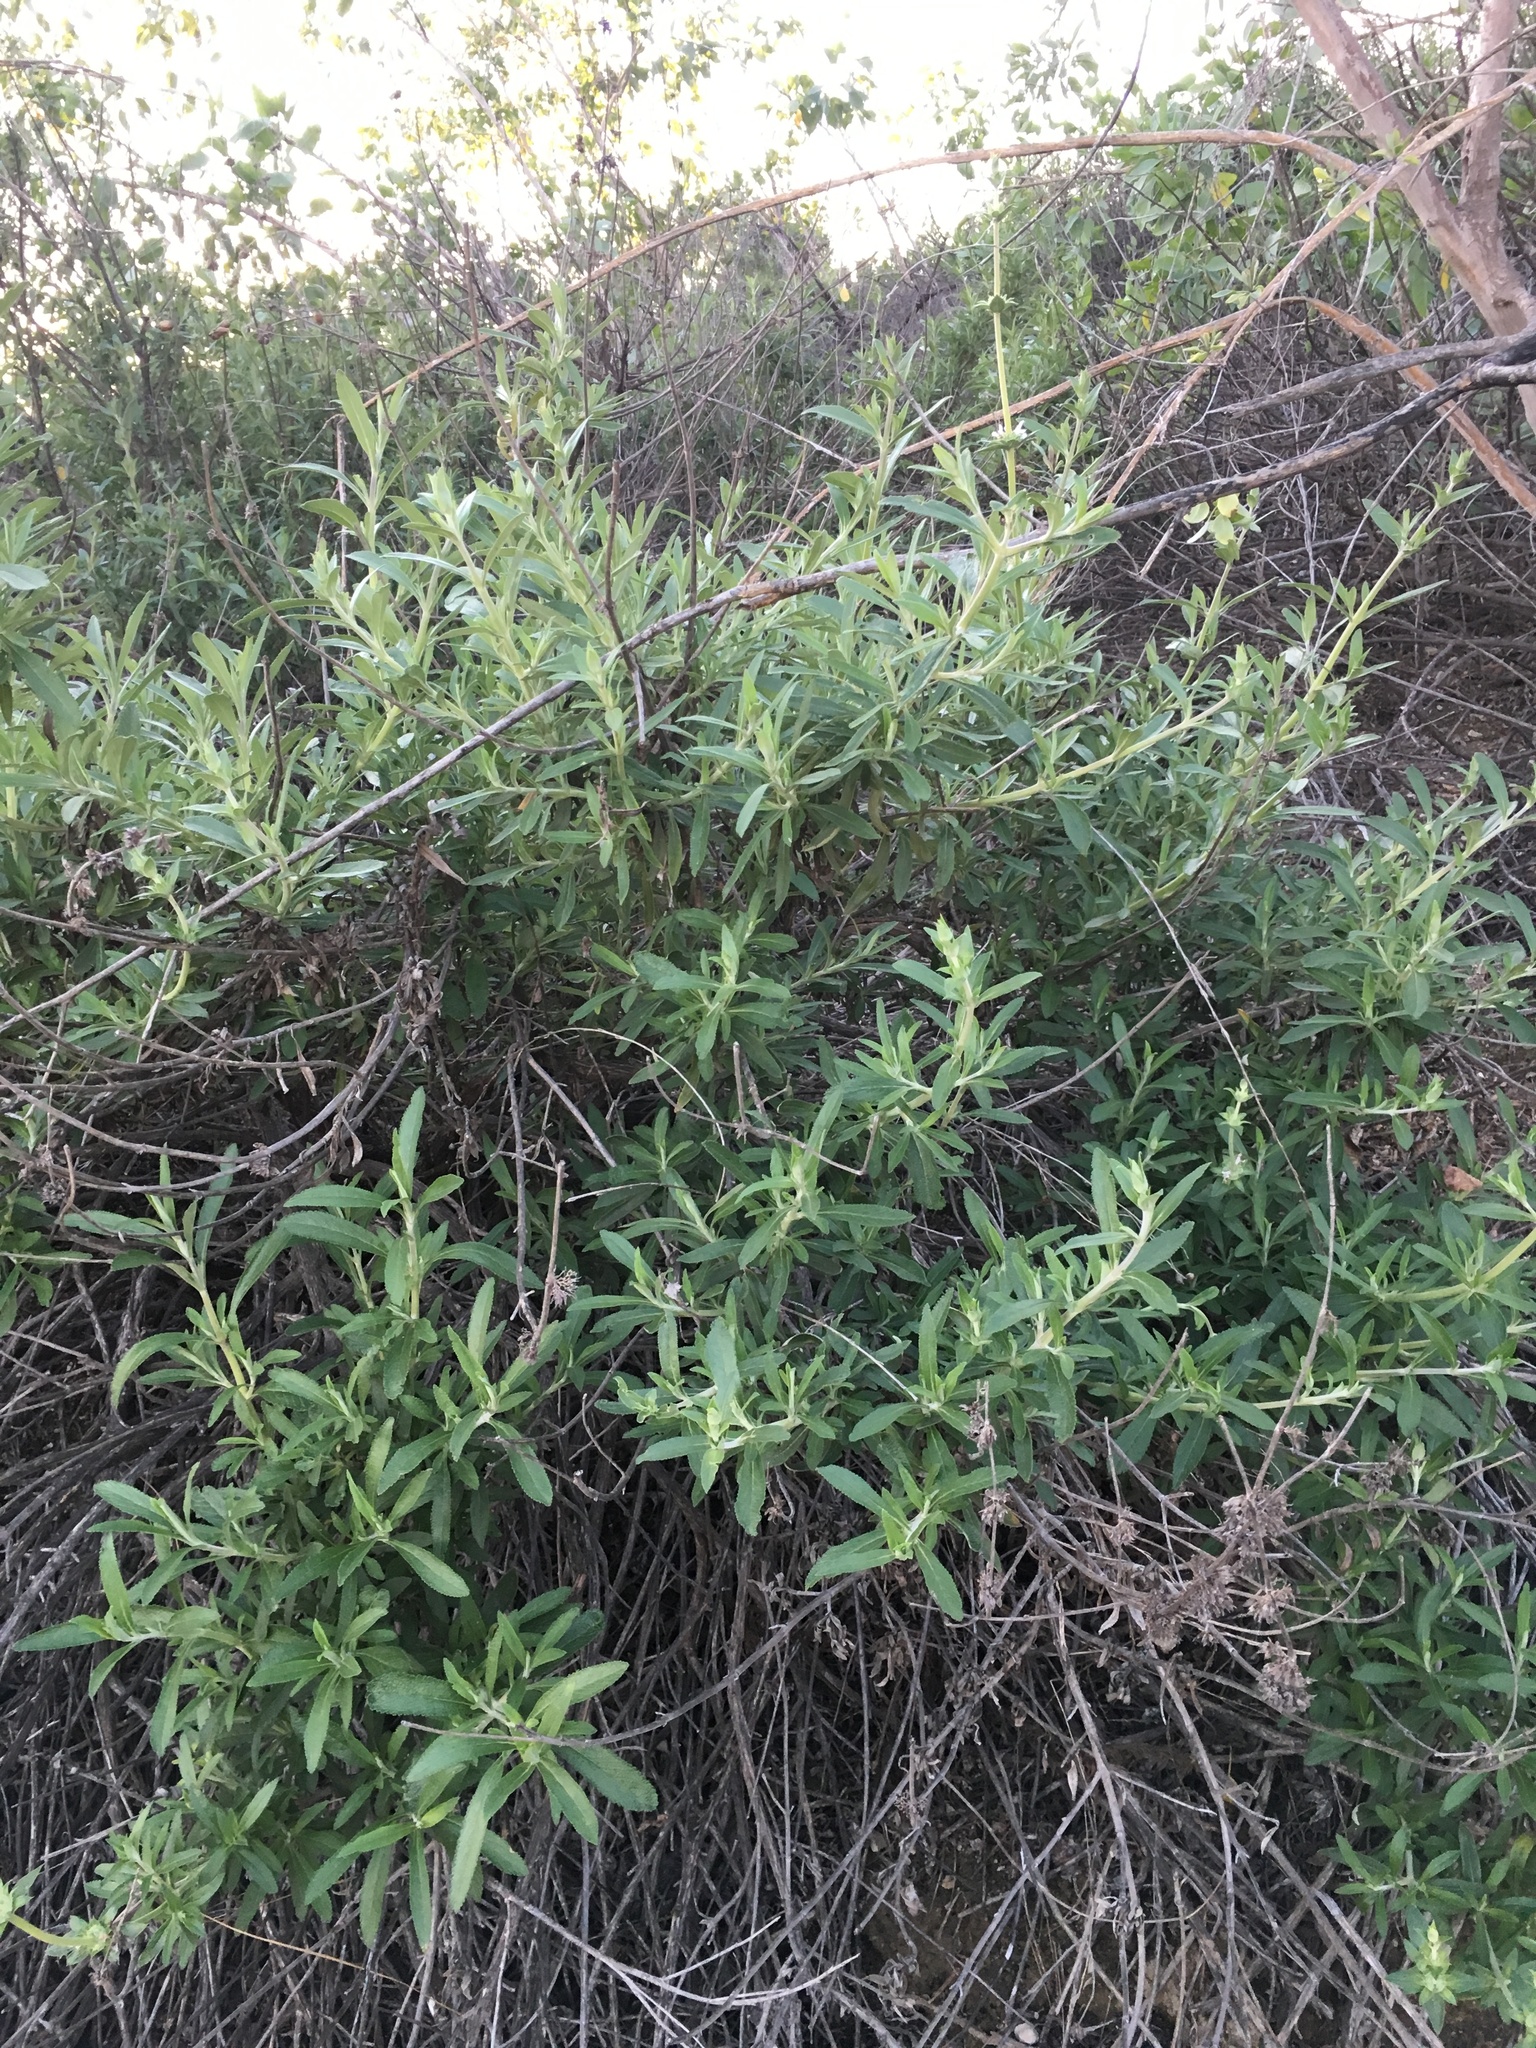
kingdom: Plantae
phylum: Tracheophyta
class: Magnoliopsida
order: Lamiales
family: Lamiaceae
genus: Salvia
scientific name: Salvia mellifera
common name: Black sage
